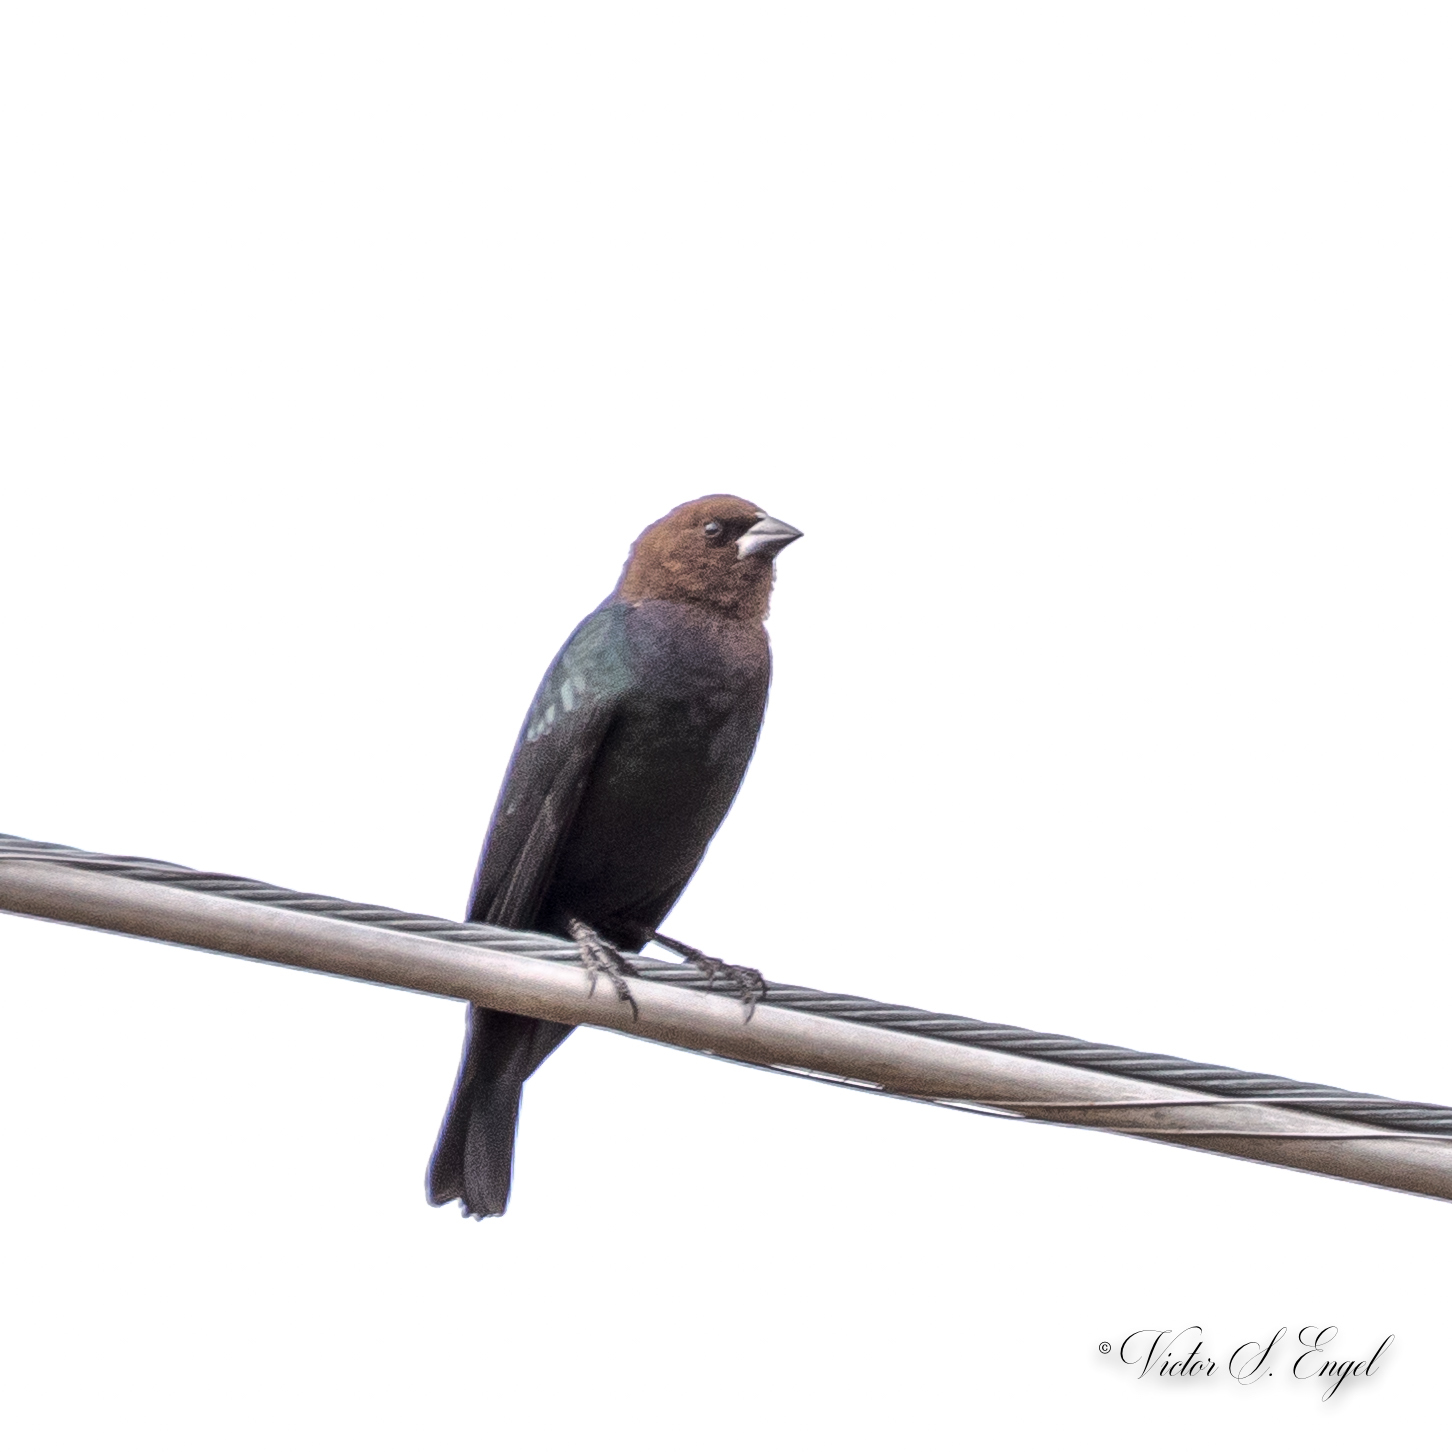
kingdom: Animalia
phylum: Chordata
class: Aves
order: Passeriformes
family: Icteridae
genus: Molothrus
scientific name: Molothrus ater
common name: Brown-headed cowbird
